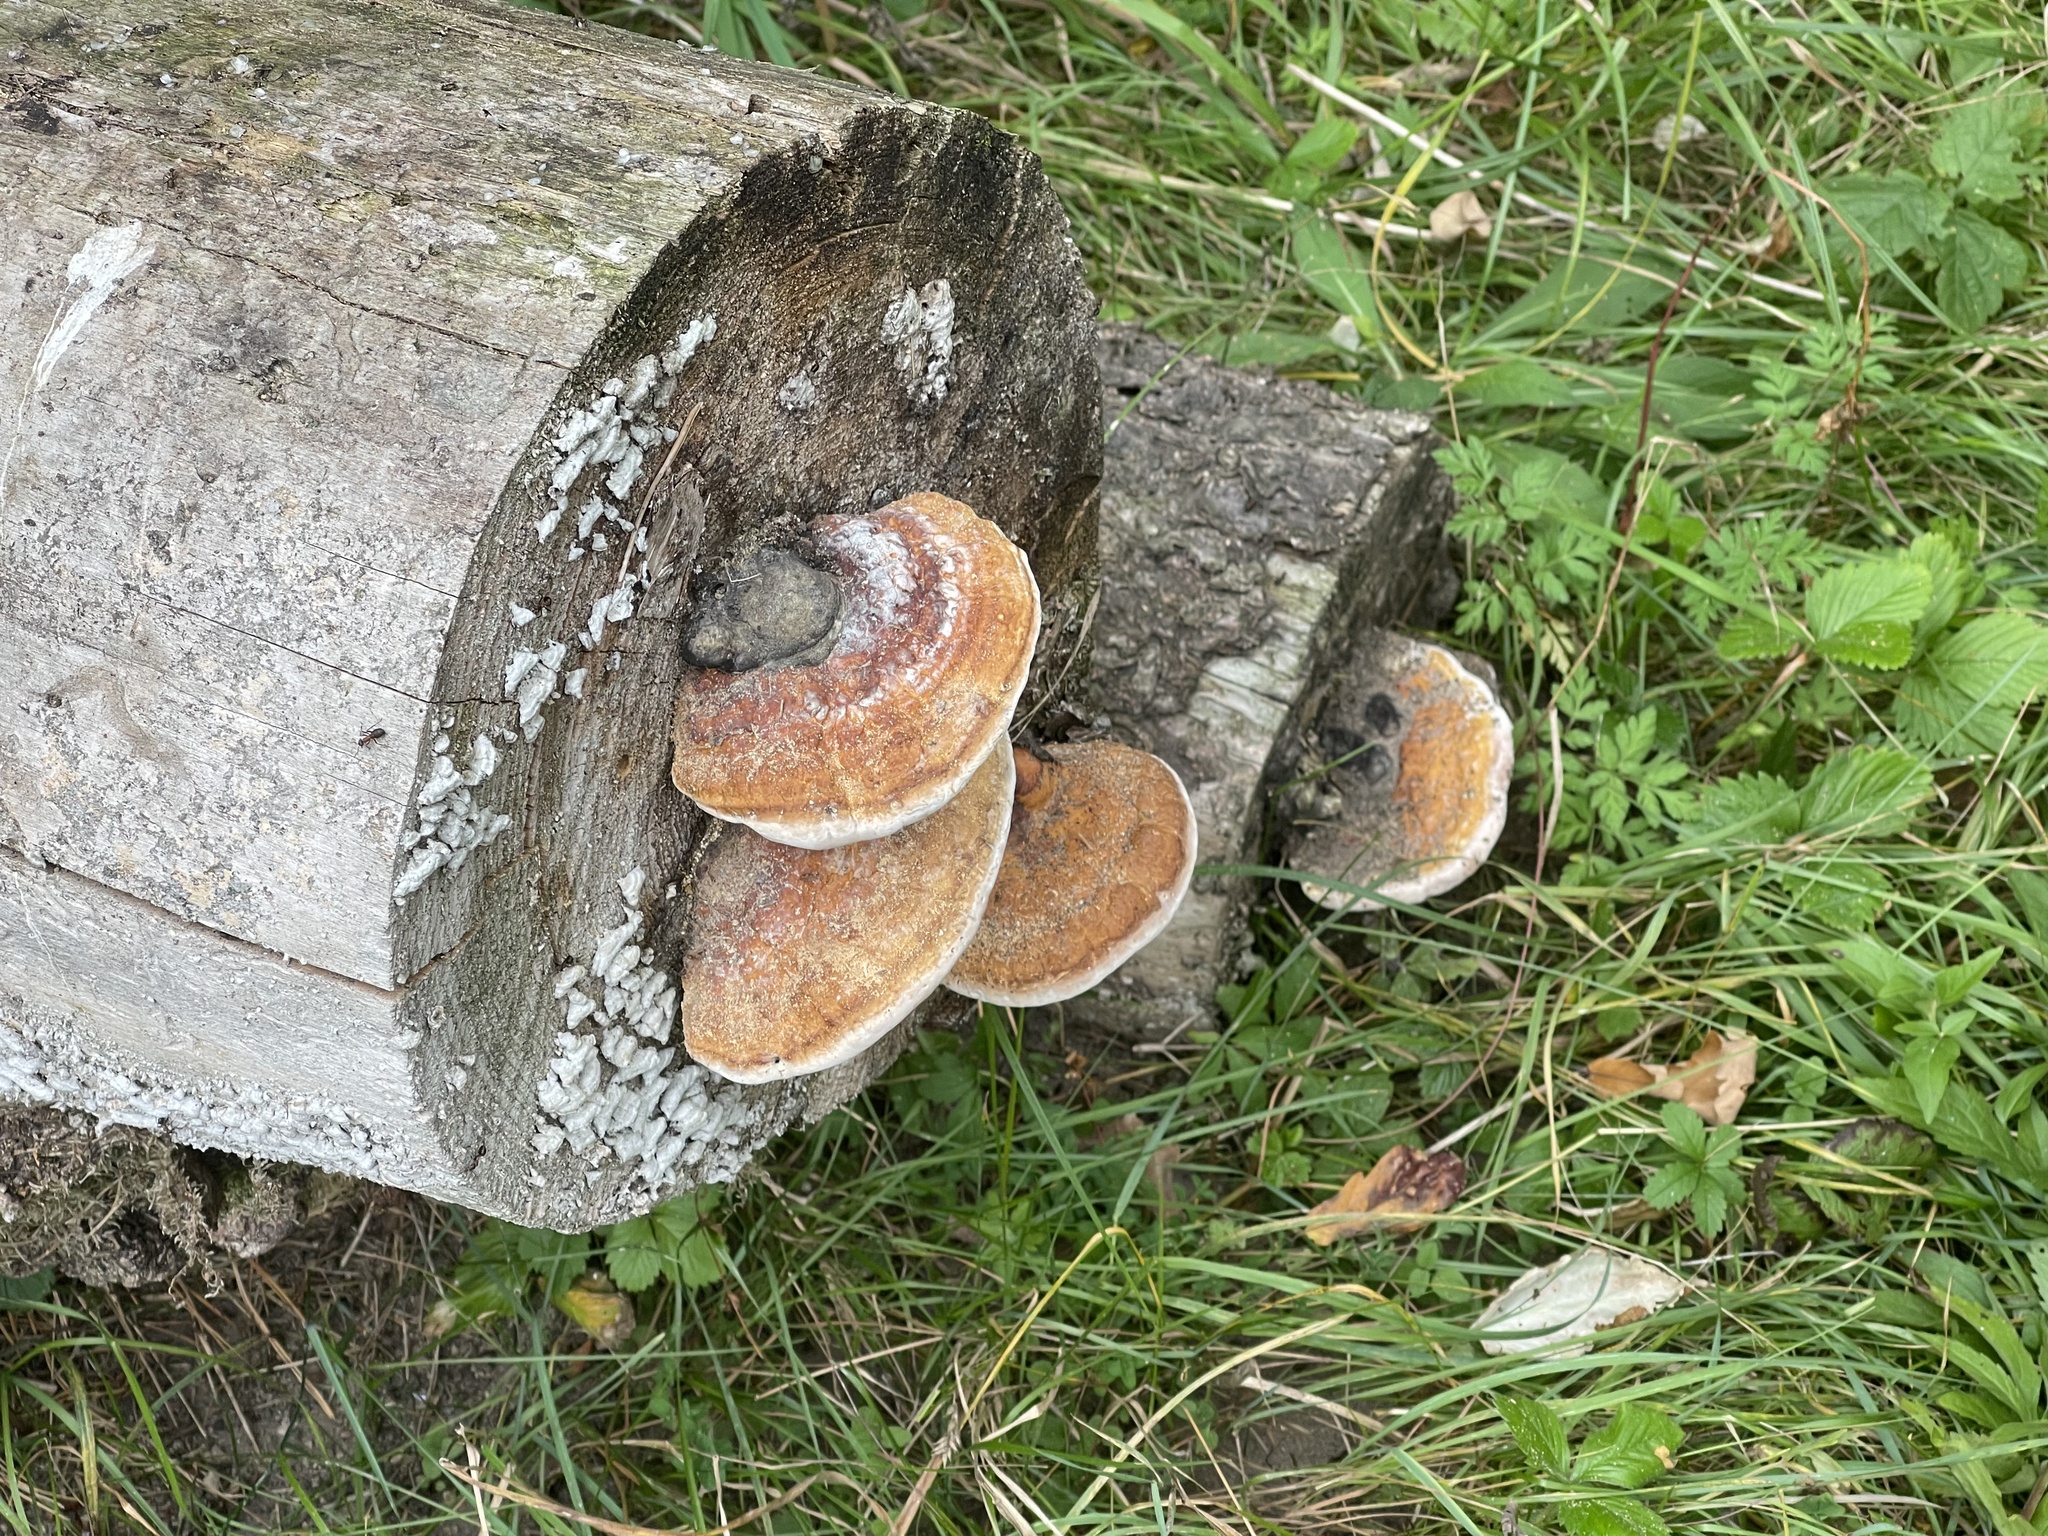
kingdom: Fungi
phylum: Basidiomycota
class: Agaricomycetes
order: Polyporales
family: Fomitopsidaceae
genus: Fomitopsis
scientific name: Fomitopsis pinicola
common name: Red-belted bracket
